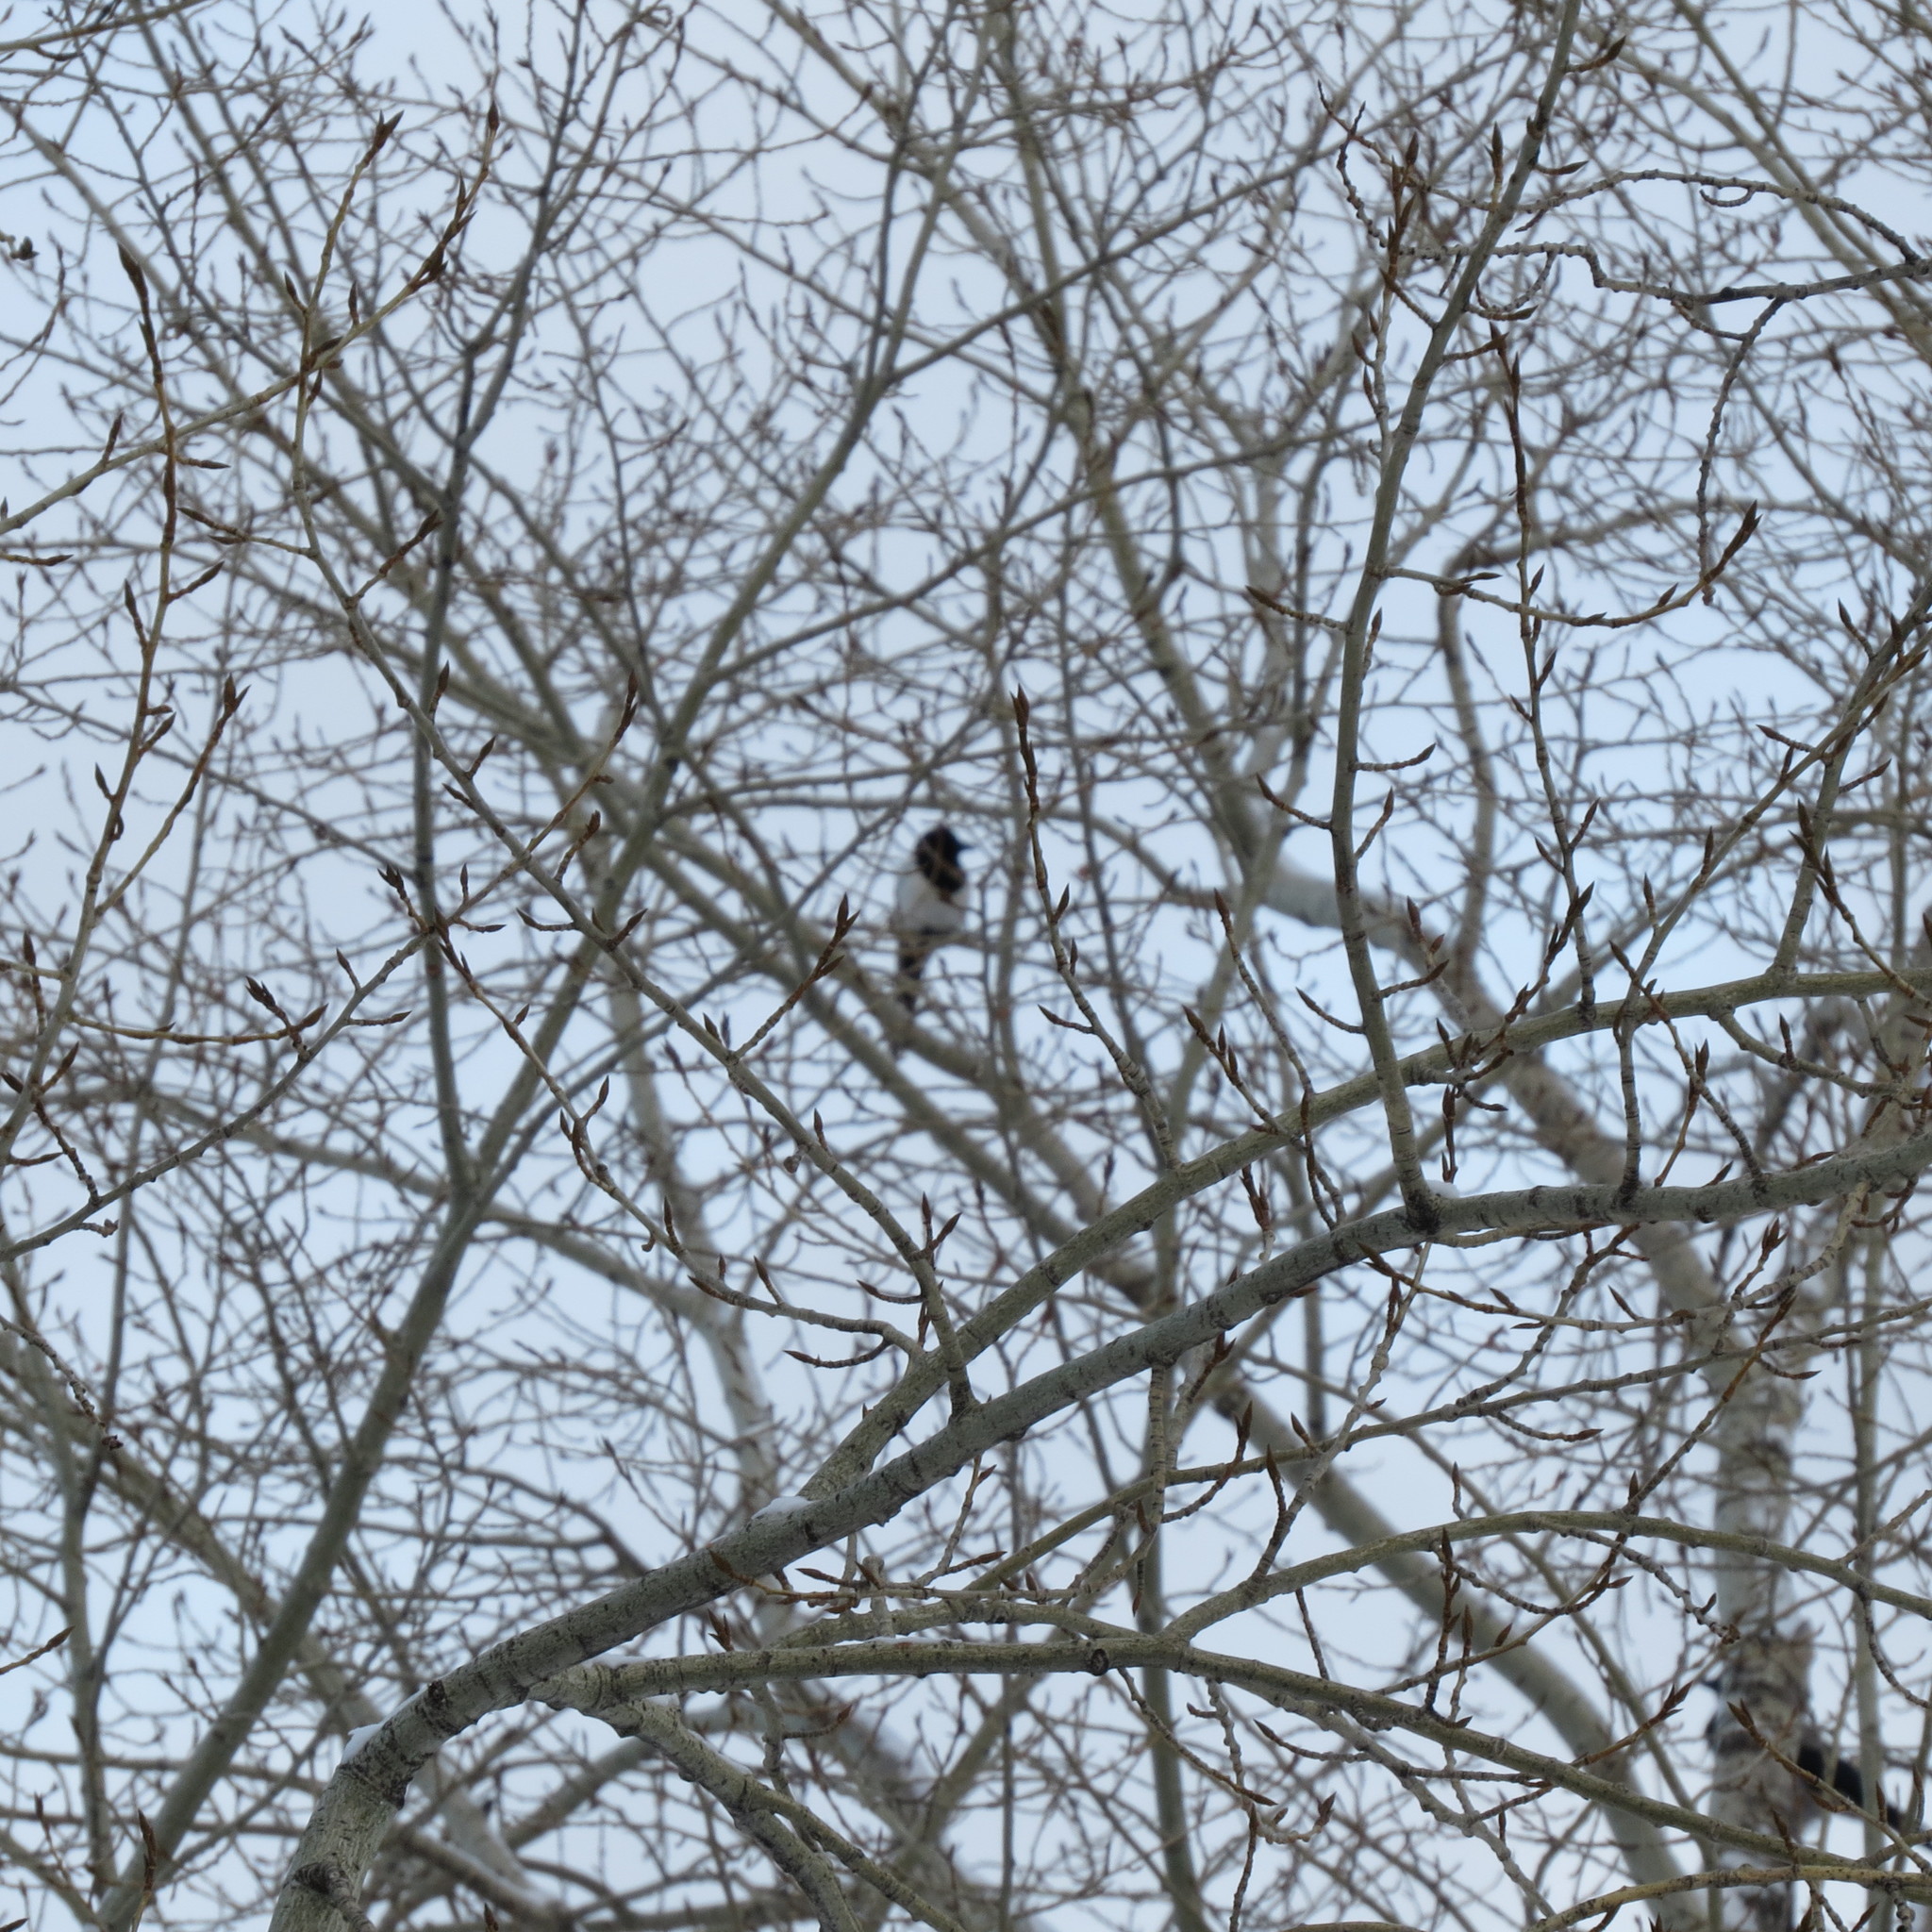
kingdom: Animalia
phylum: Chordata
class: Aves
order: Passeriformes
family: Corvidae
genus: Pica
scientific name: Pica pica
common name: Eurasian magpie
